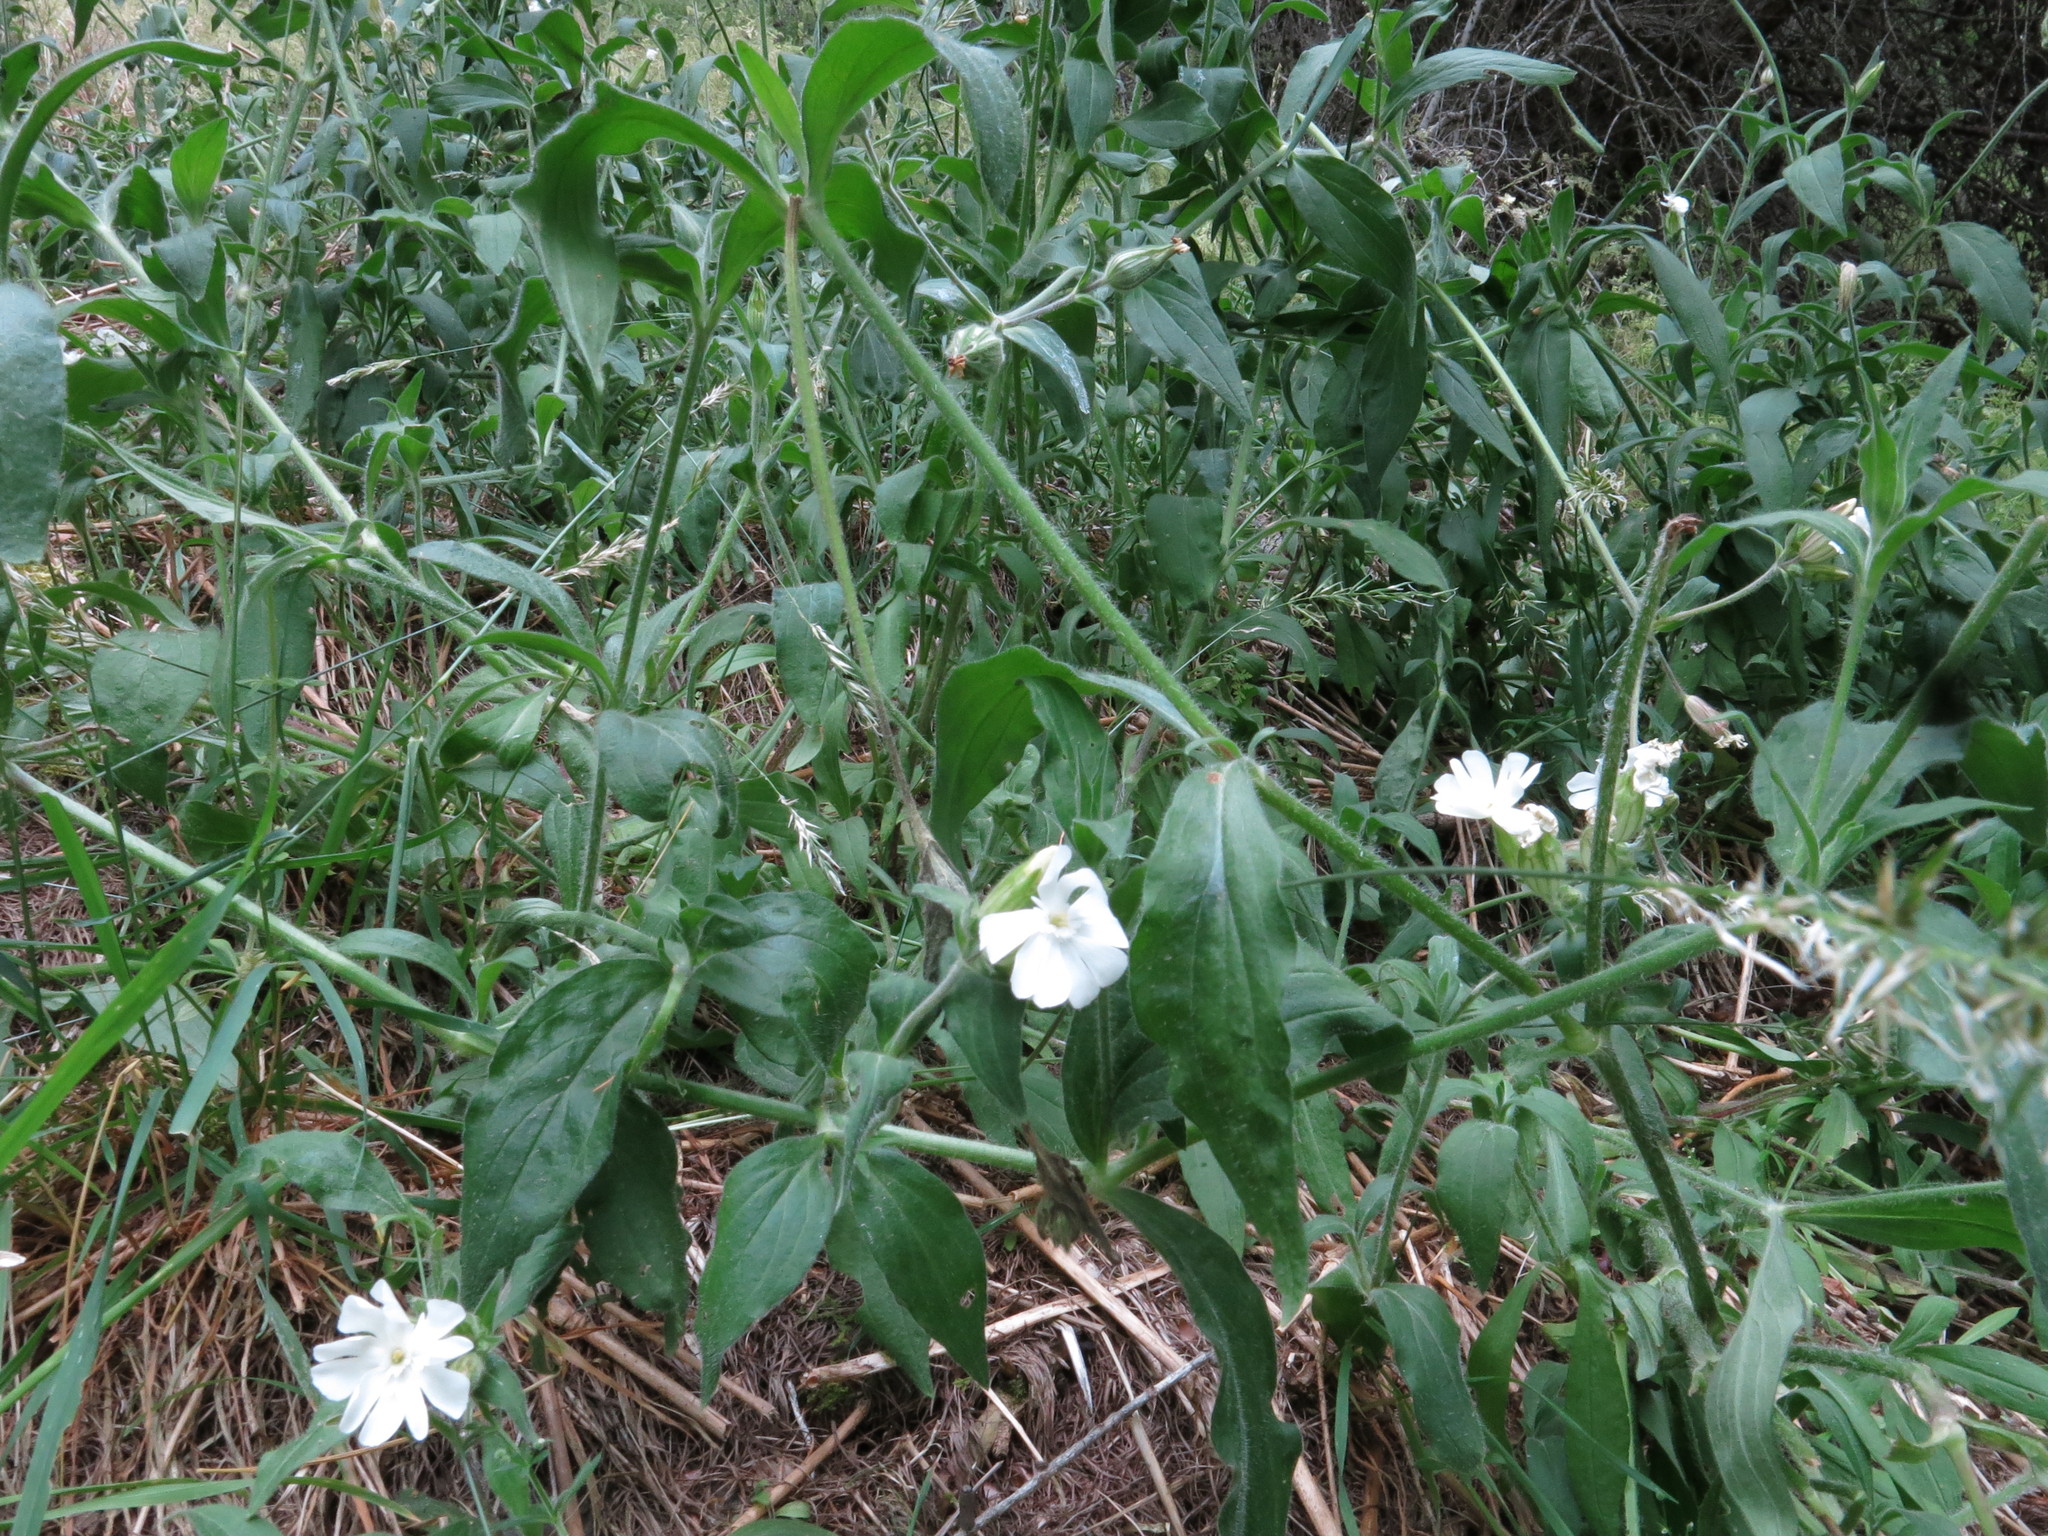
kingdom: Plantae
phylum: Tracheophyta
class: Magnoliopsida
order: Caryophyllales
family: Caryophyllaceae
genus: Silene
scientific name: Silene latifolia
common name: White campion
